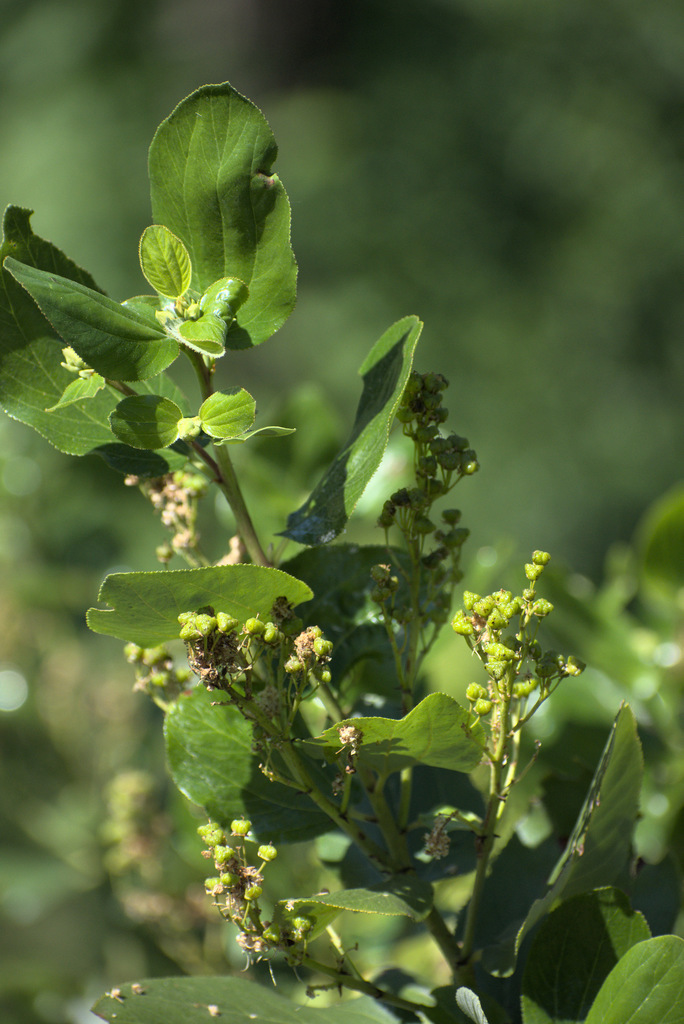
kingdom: Plantae
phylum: Tracheophyta
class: Magnoliopsida
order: Rosales
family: Rhamnaceae
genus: Ceanothus
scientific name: Ceanothus velutinus
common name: Snowbrush
